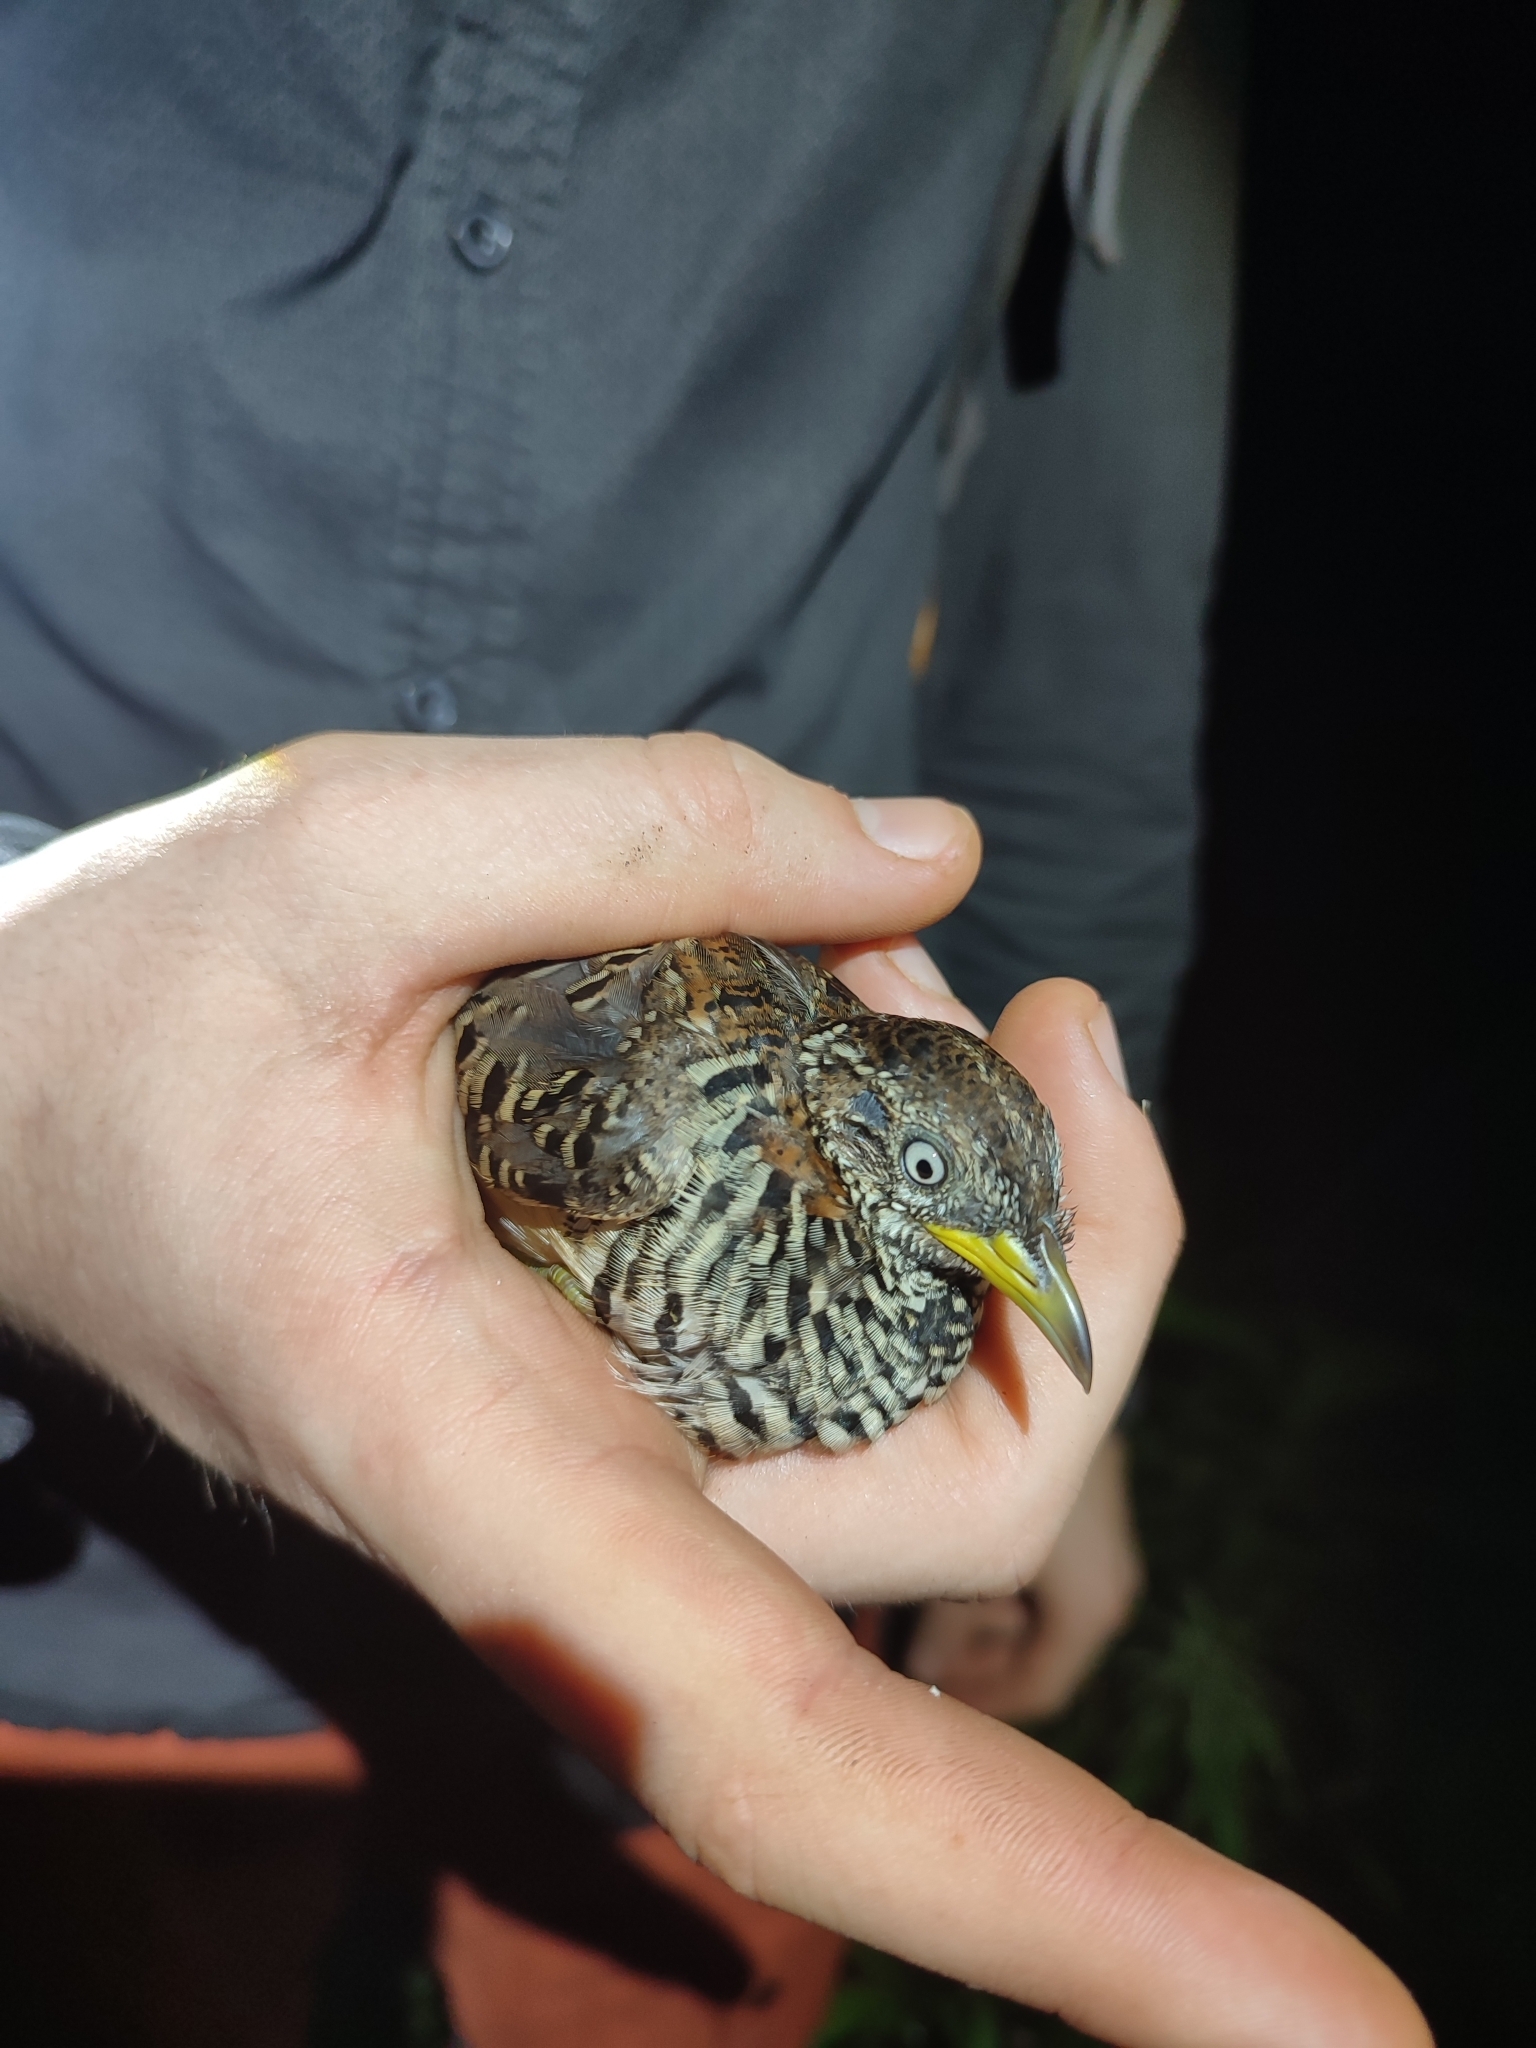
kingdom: Animalia
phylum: Chordata
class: Aves
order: Charadriiformes
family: Turnicidae
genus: Turnix
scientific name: Turnix suscitator
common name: Barred buttonquail
